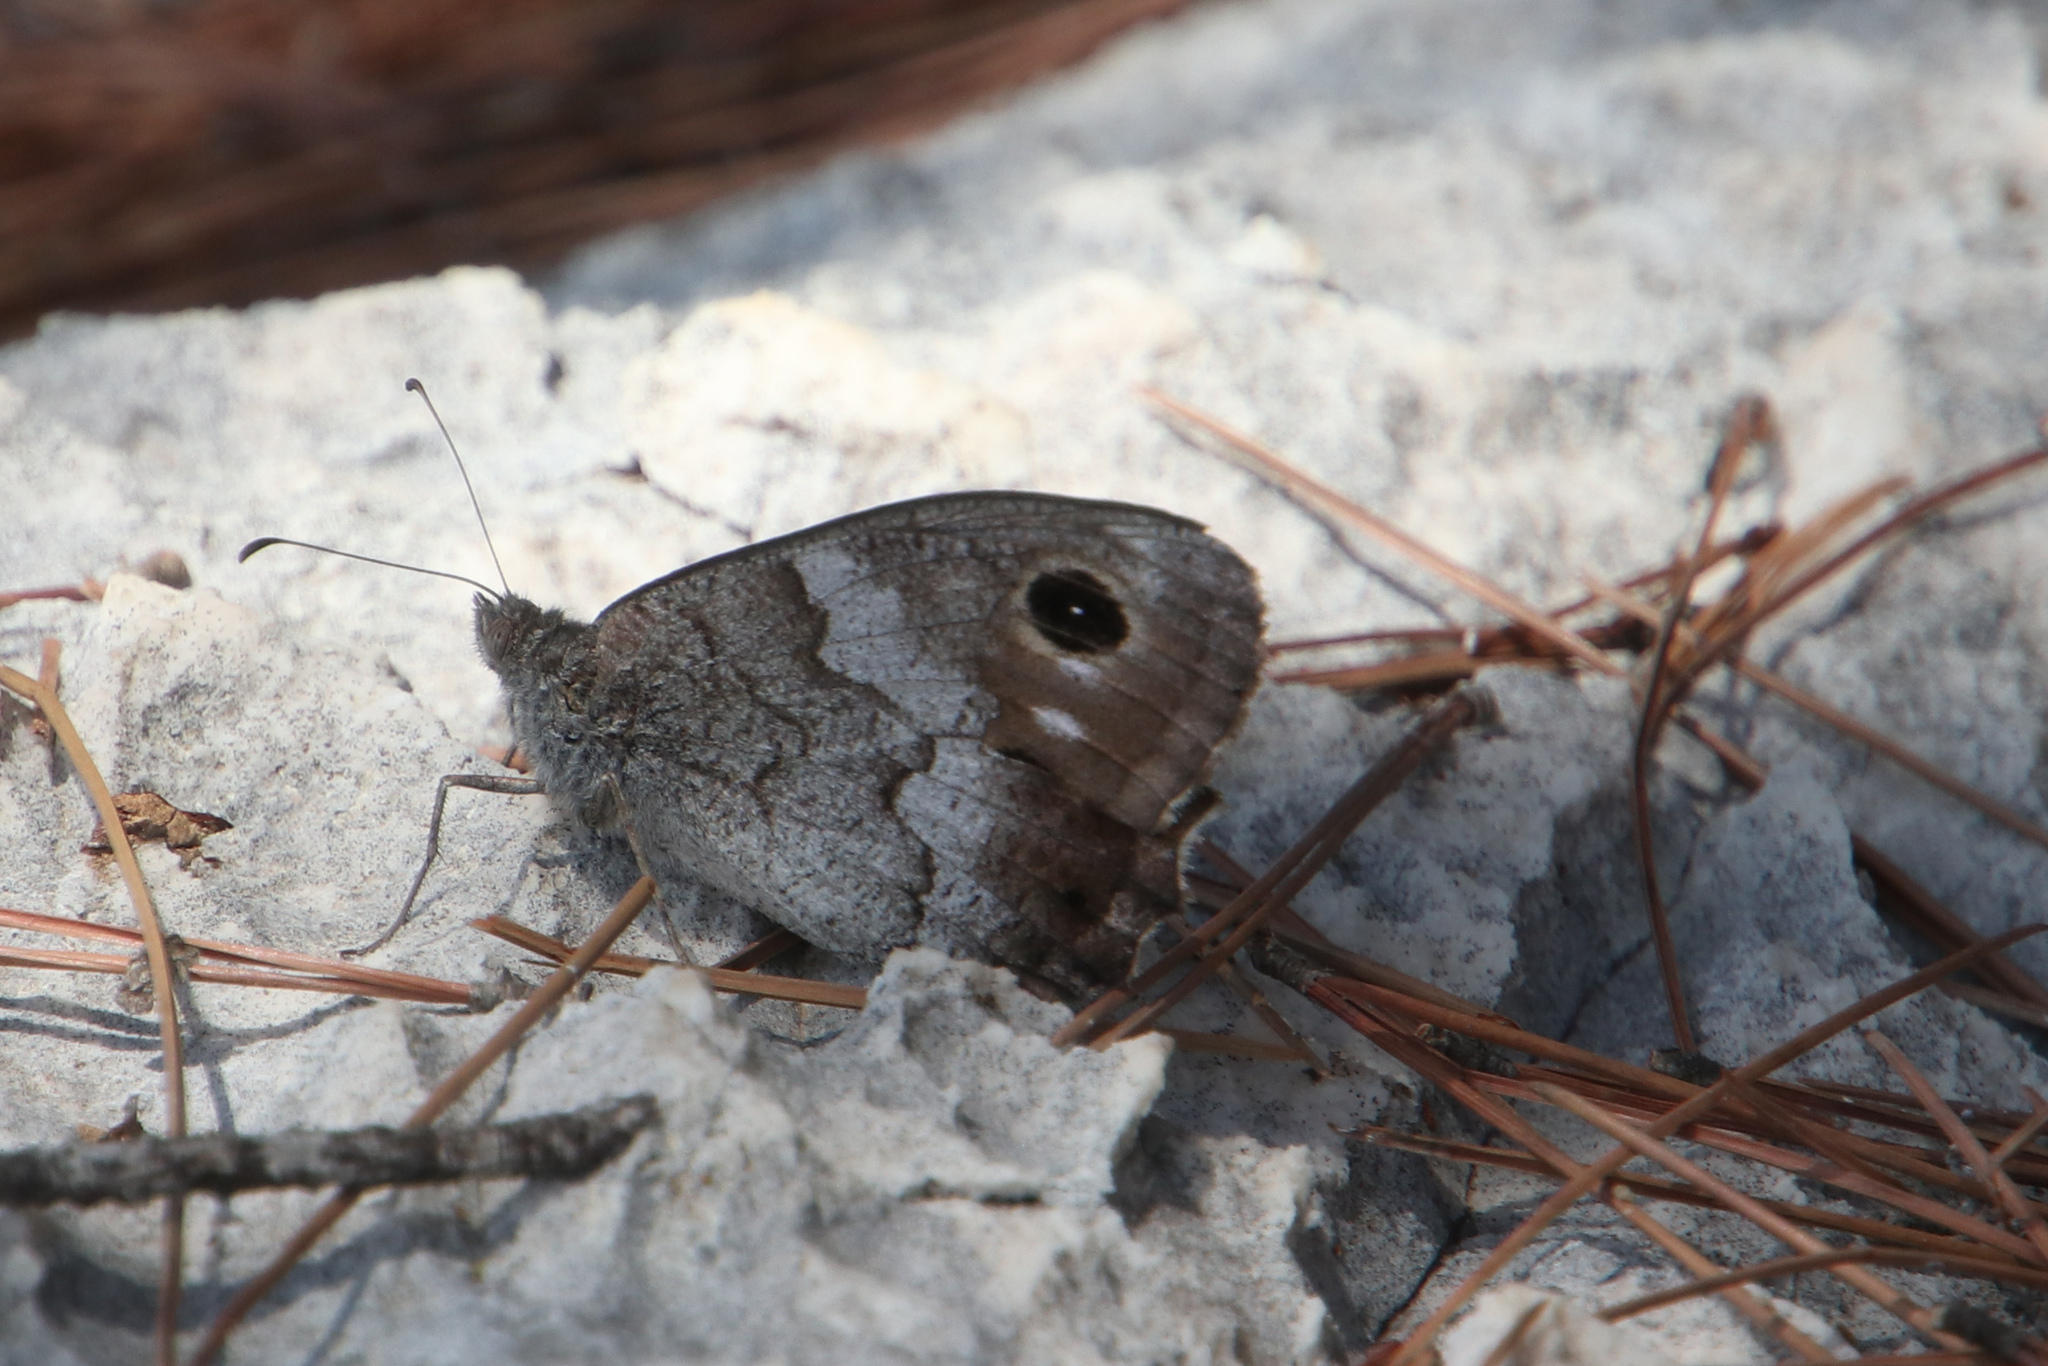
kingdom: Animalia
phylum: Arthropoda
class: Insecta
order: Lepidoptera
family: Nymphalidae
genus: Hipparchia
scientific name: Hipparchia statilinus
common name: Tree grayling
